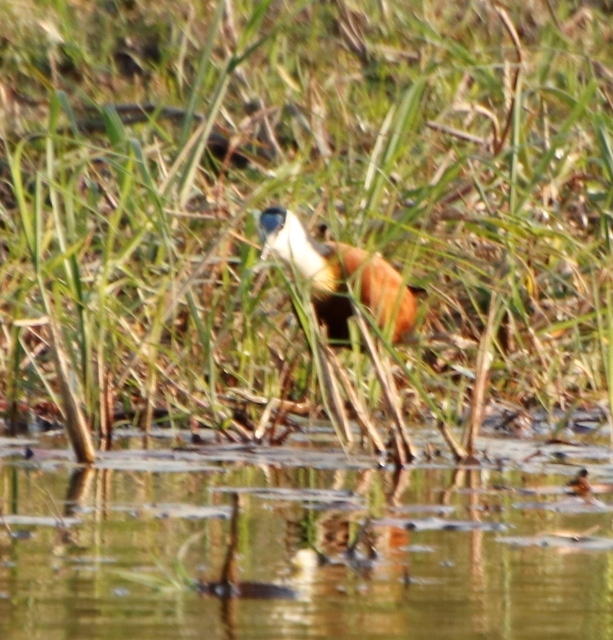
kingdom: Animalia
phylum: Chordata
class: Aves
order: Charadriiformes
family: Jacanidae
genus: Actophilornis
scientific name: Actophilornis africanus
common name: African jacana
